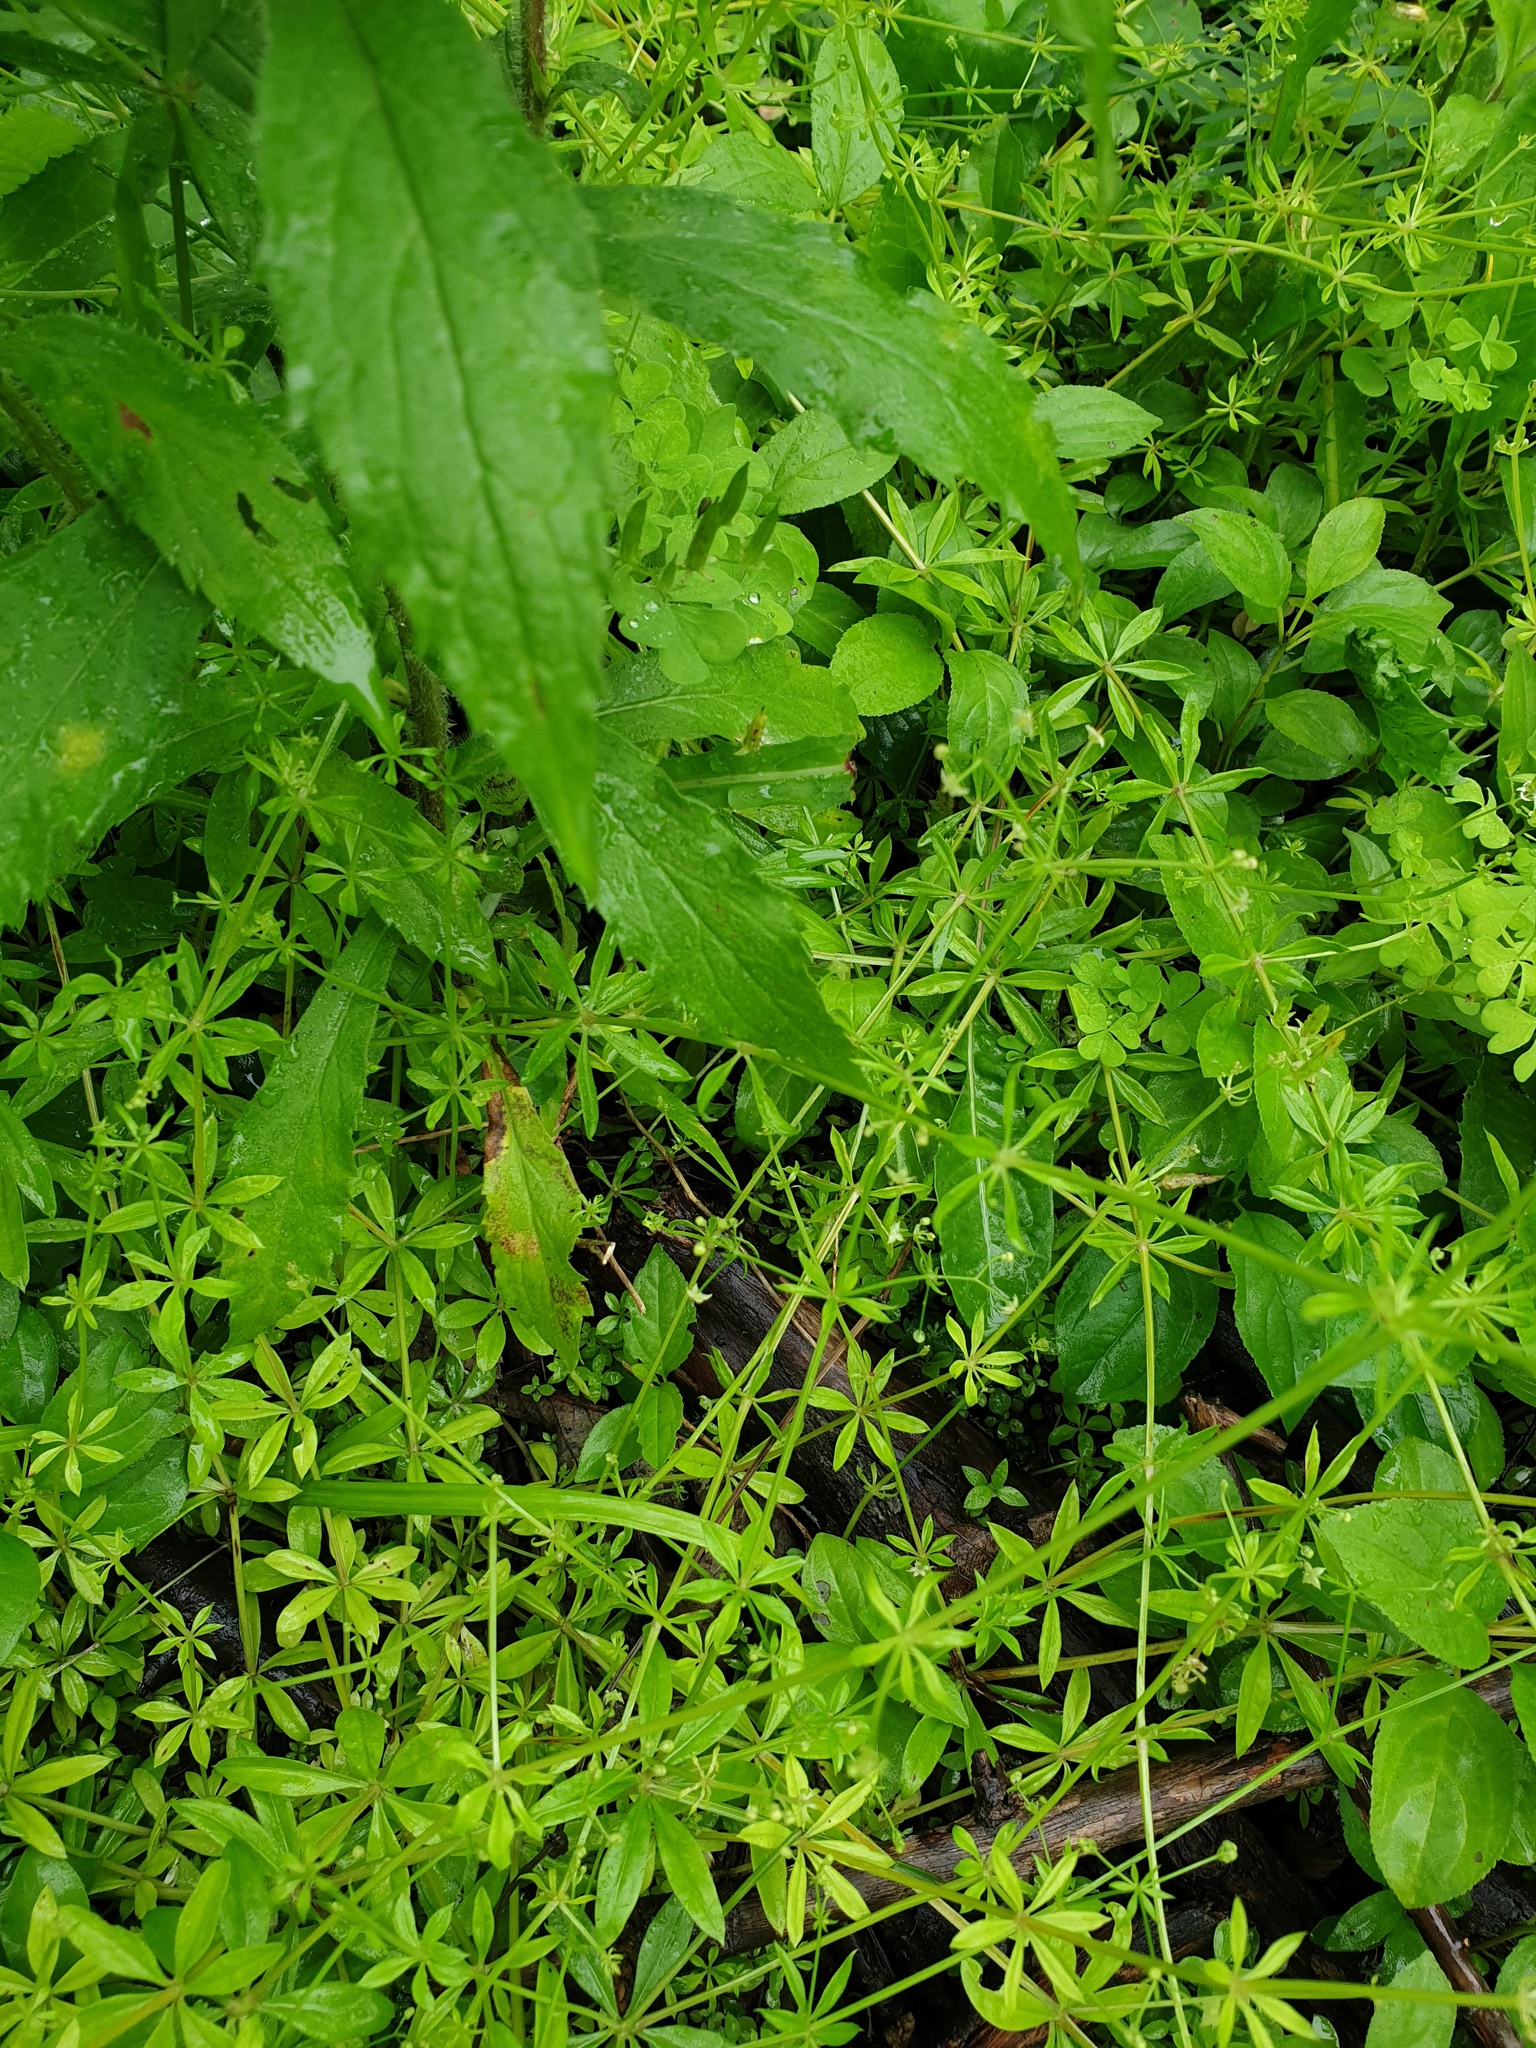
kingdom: Plantae
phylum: Tracheophyta
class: Magnoliopsida
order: Gentianales
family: Rubiaceae
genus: Galium
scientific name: Galium triflorum
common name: Fragrant bedstraw
